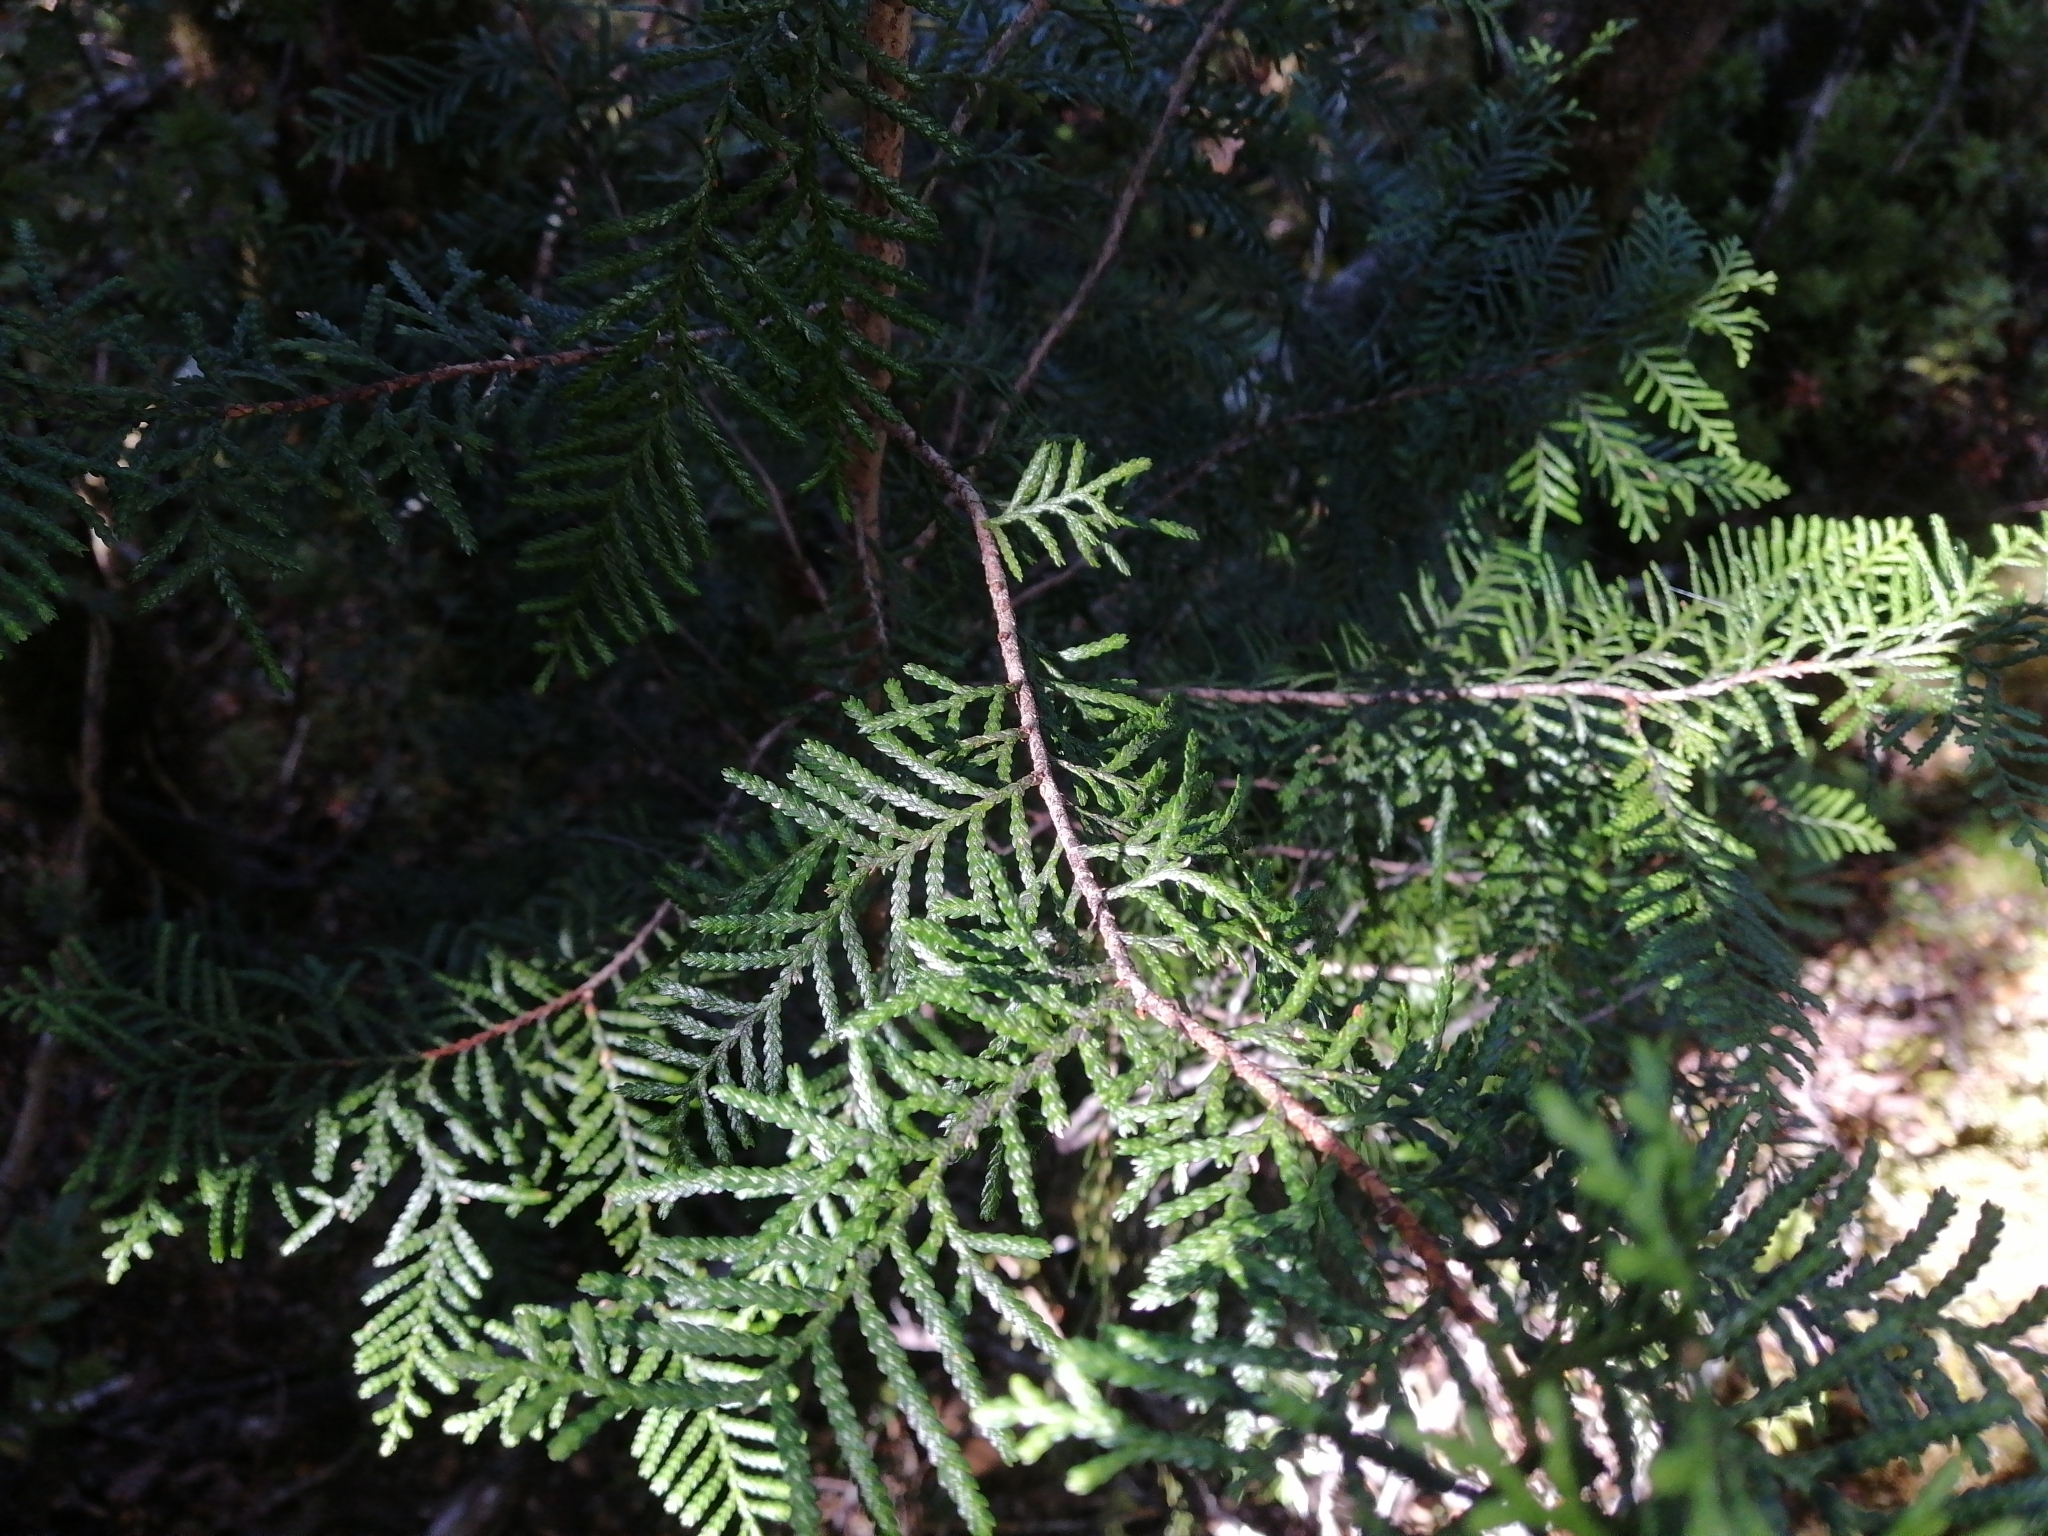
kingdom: Plantae
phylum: Tracheophyta
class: Pinopsida
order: Pinales
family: Cupressaceae
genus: Libocedrus
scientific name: Libocedrus bidwillii
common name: Cedar
